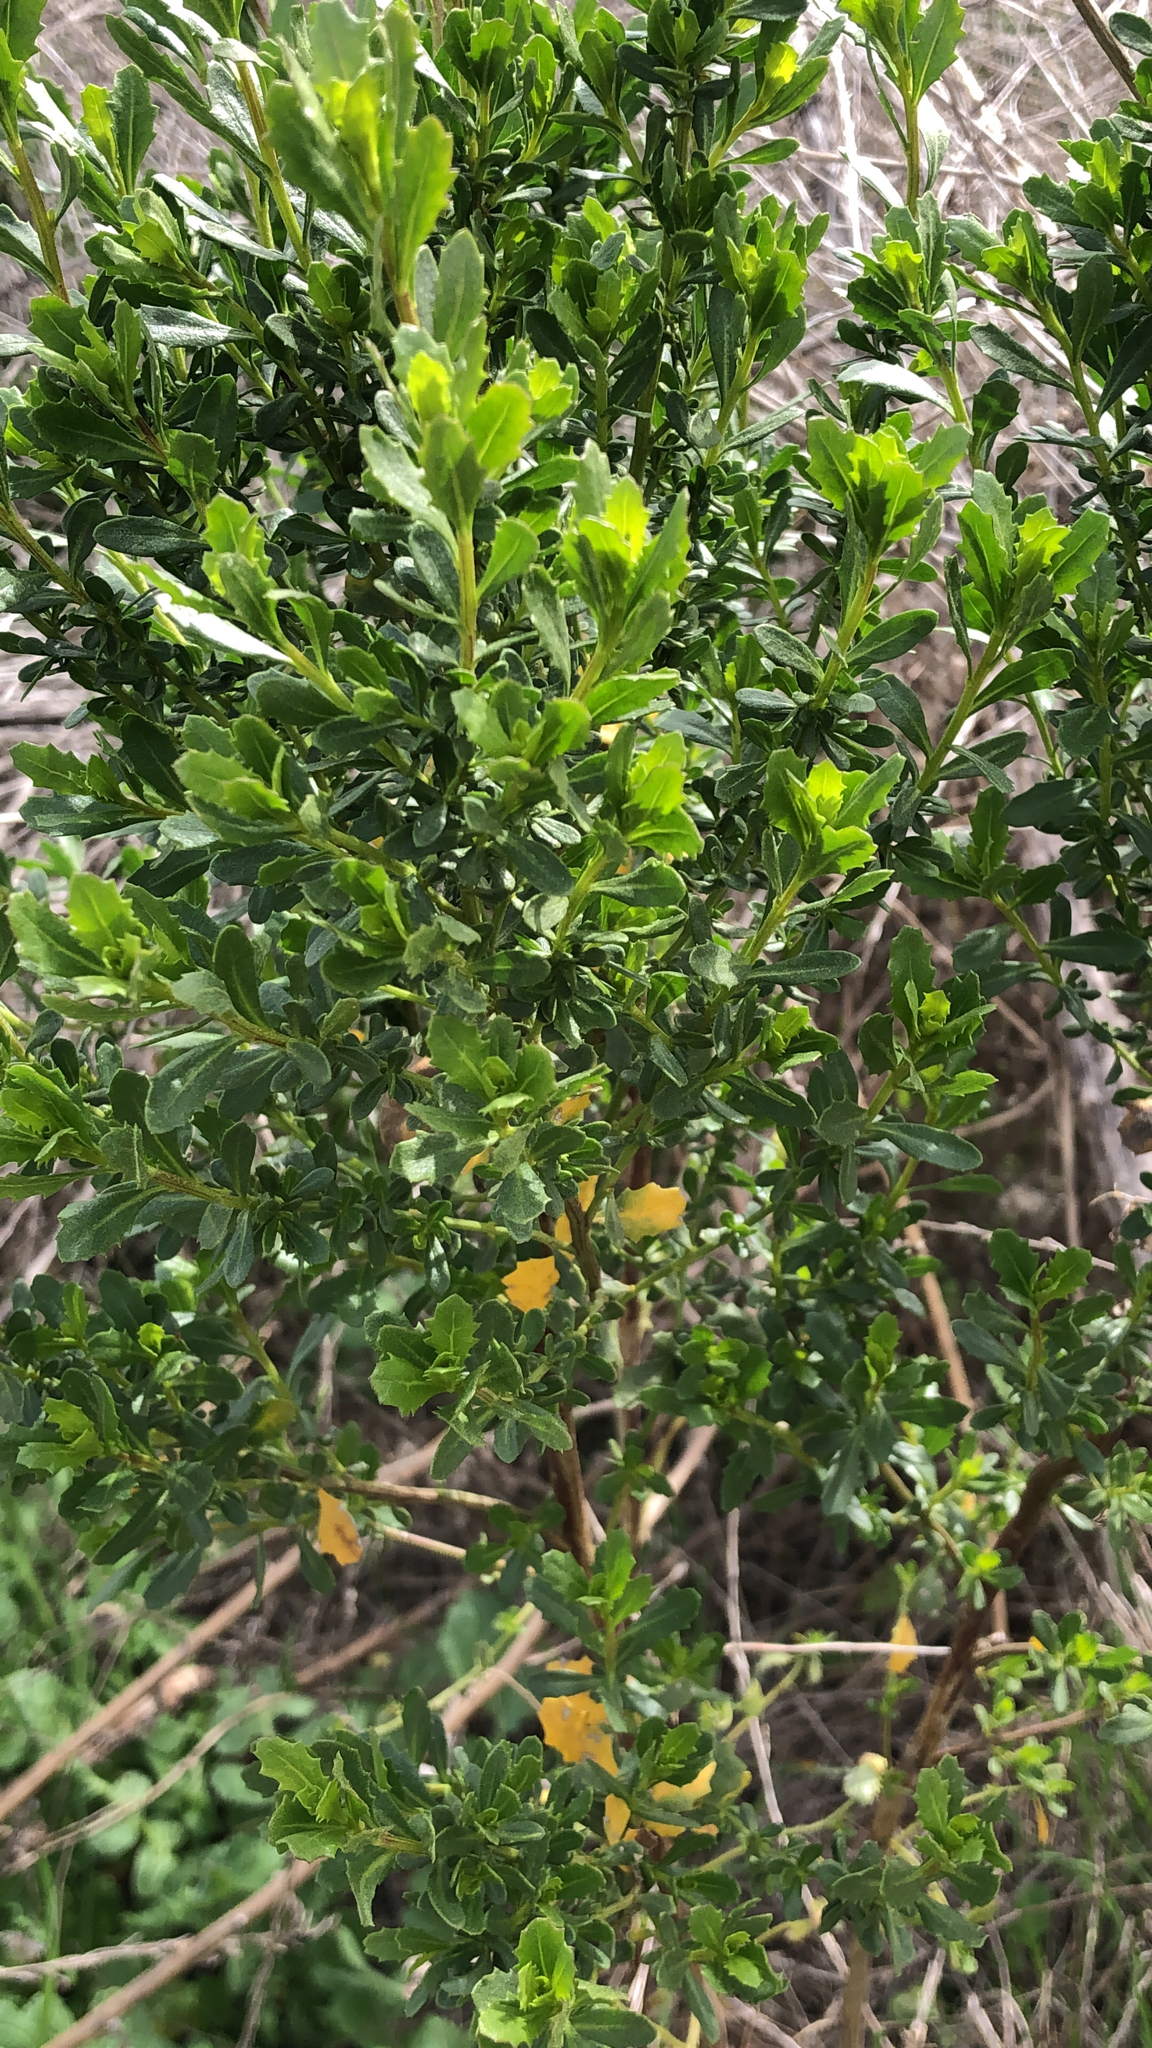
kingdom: Plantae
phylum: Tracheophyta
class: Magnoliopsida
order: Asterales
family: Asteraceae
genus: Baccharis
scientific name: Baccharis pilularis
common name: Coyotebrush
